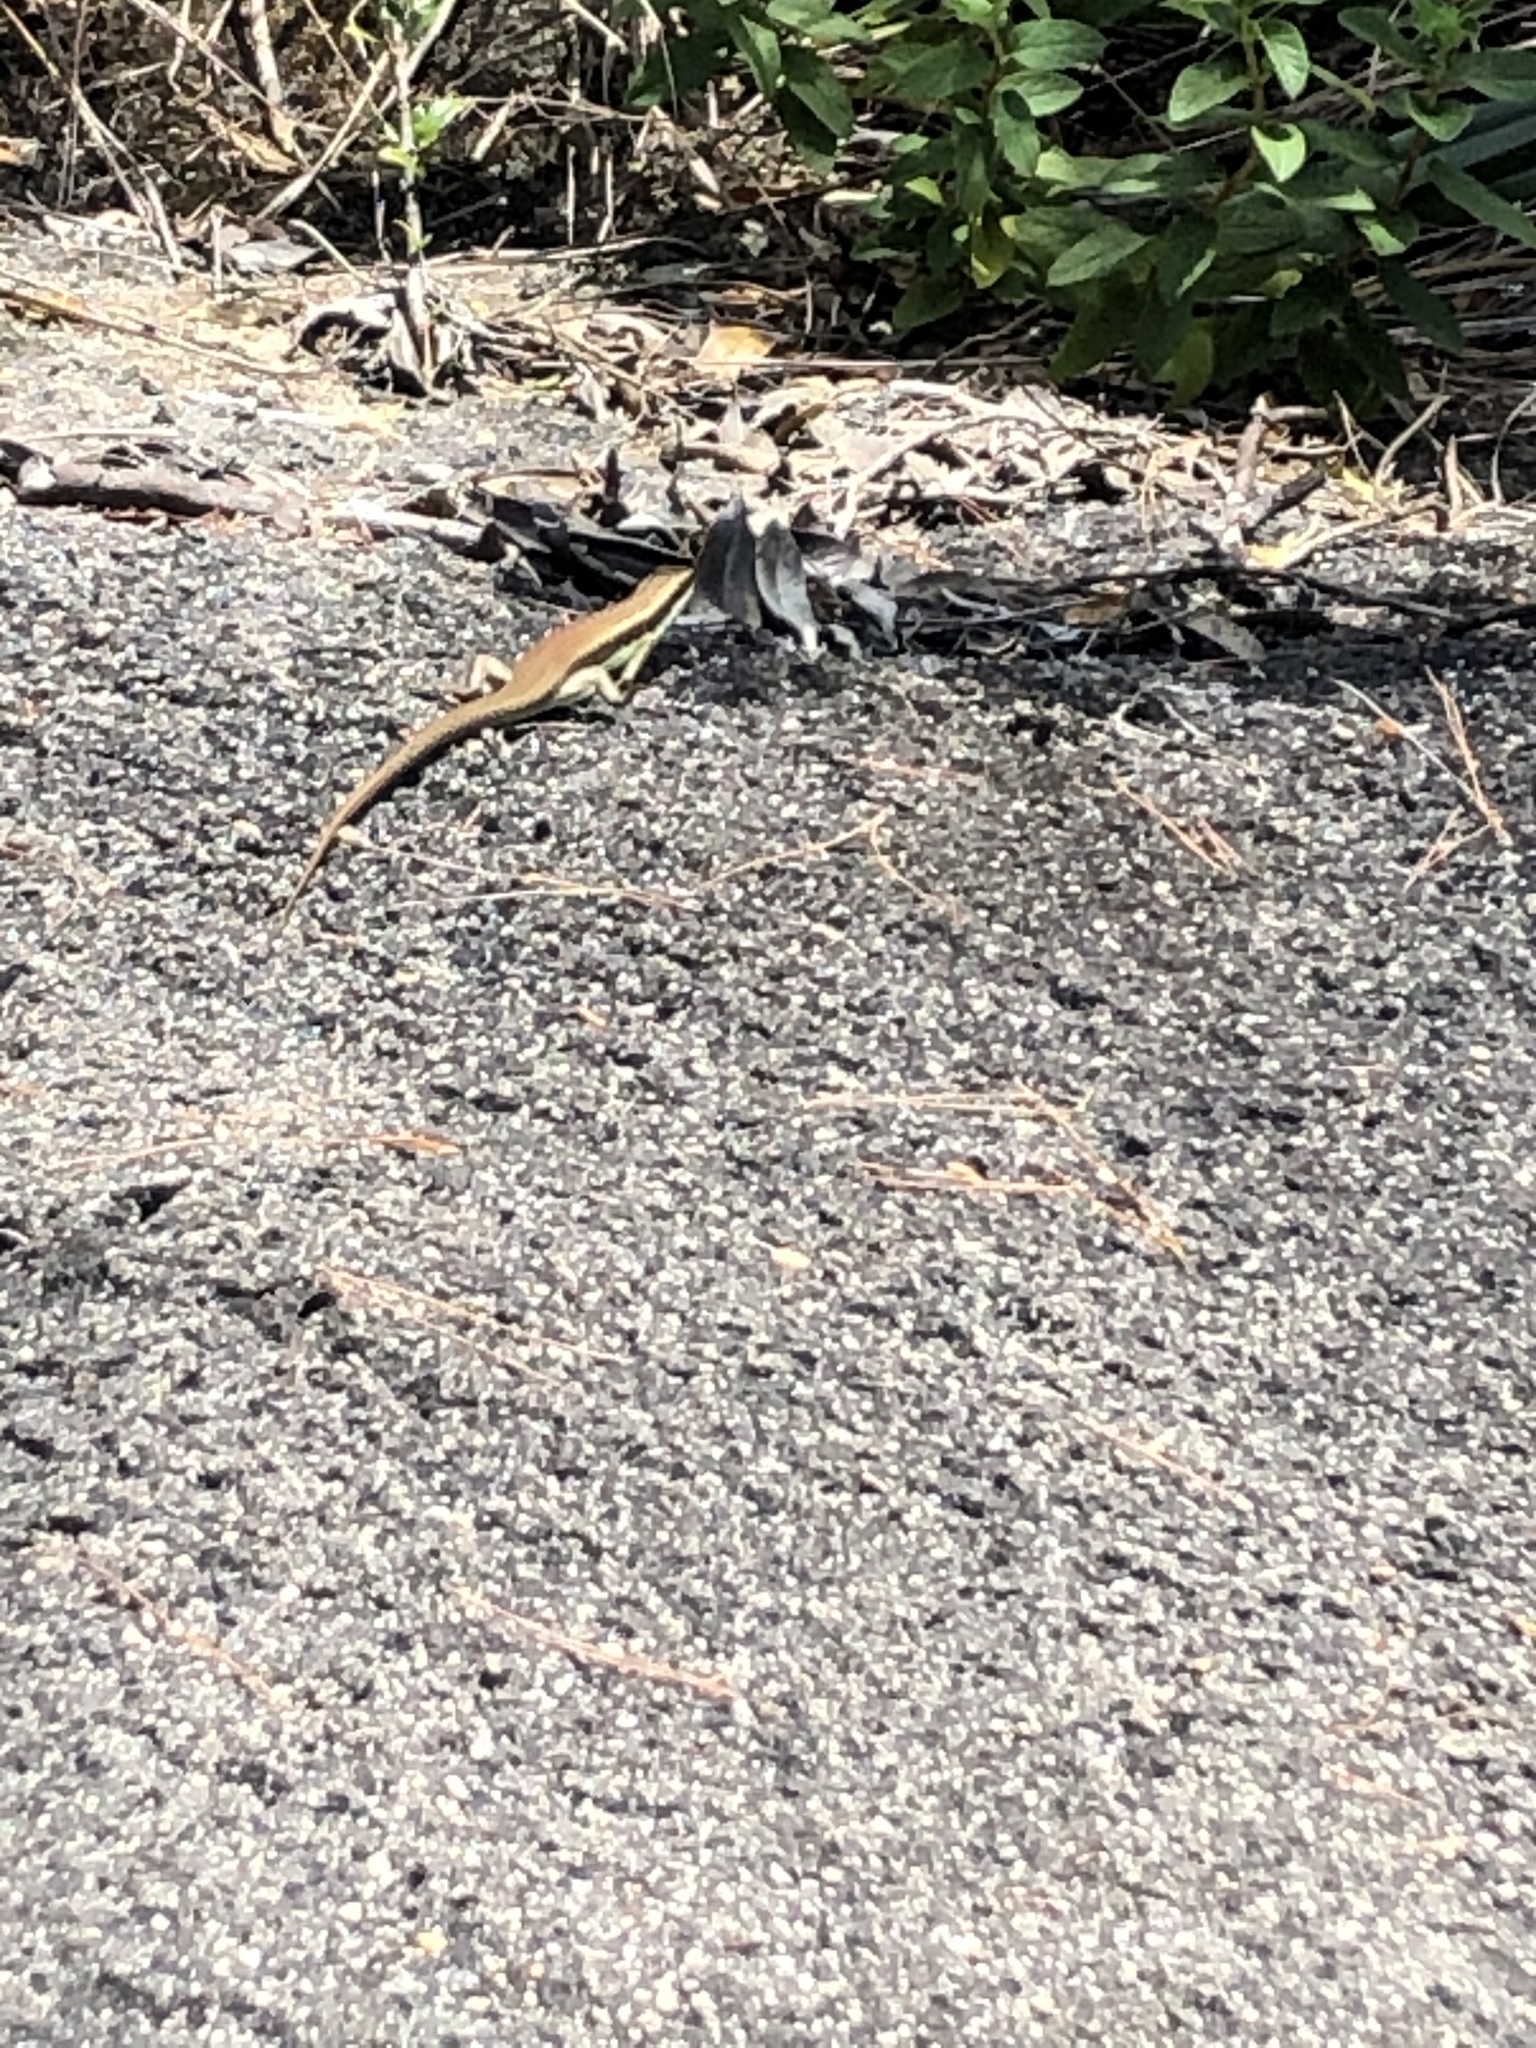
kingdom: Animalia
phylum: Chordata
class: Squamata
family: Scincidae
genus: Eutropis
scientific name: Eutropis longicaudata
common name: Long-tailed sun skink
